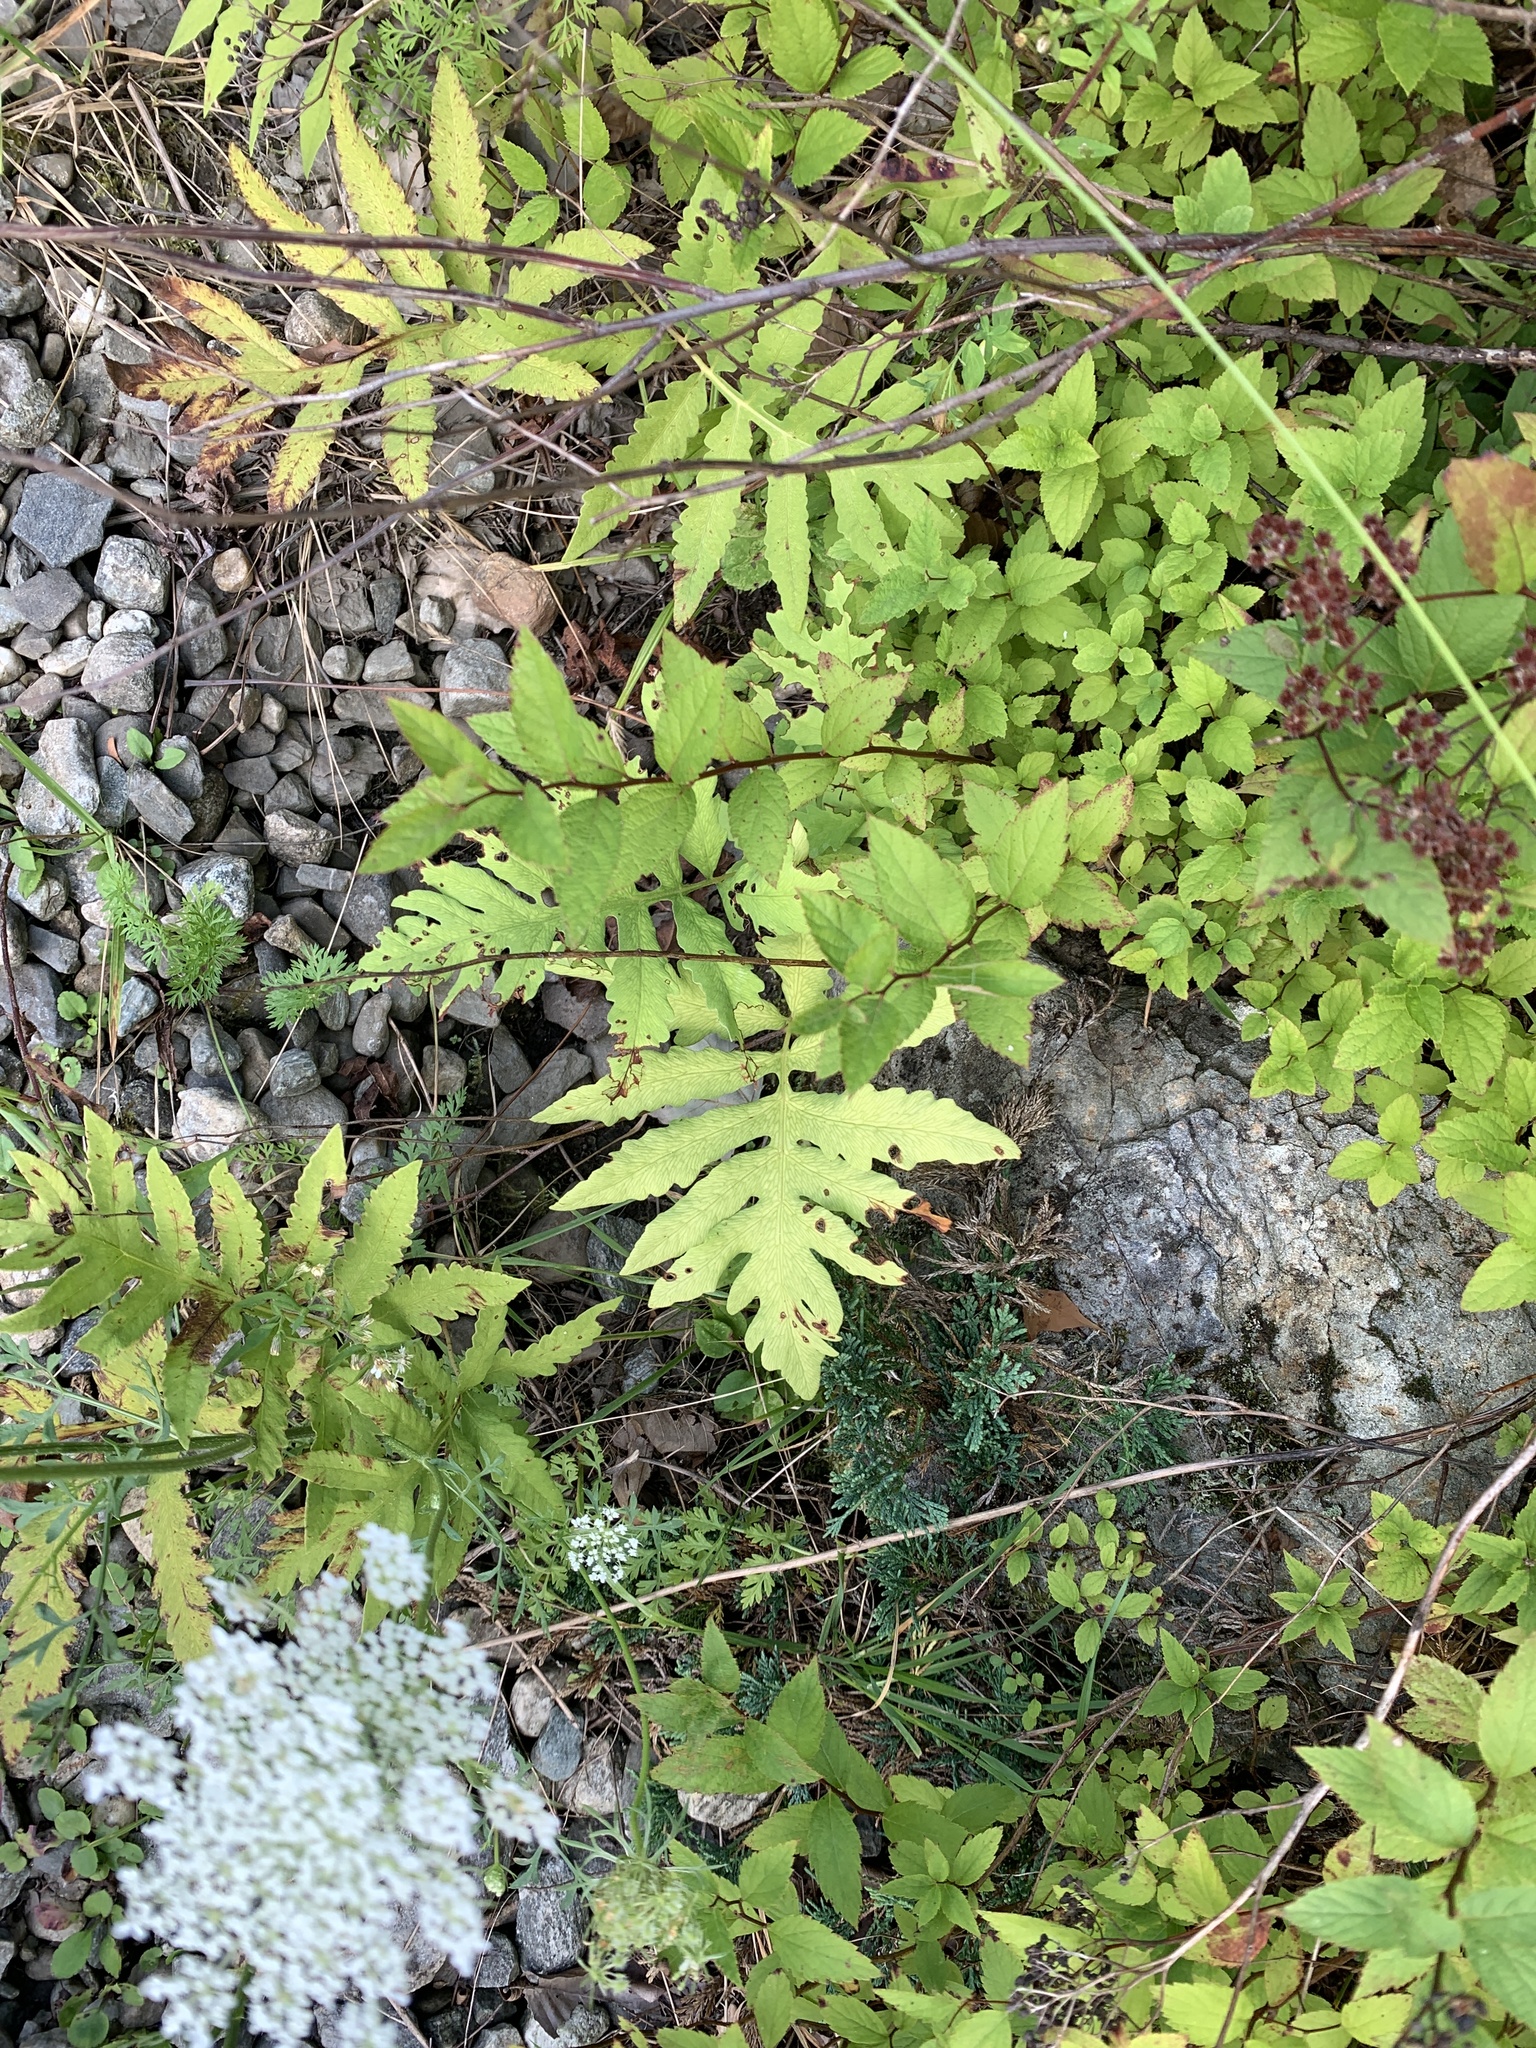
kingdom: Plantae
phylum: Tracheophyta
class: Polypodiopsida
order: Polypodiales
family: Onocleaceae
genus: Onoclea
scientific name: Onoclea sensibilis
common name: Sensitive fern
